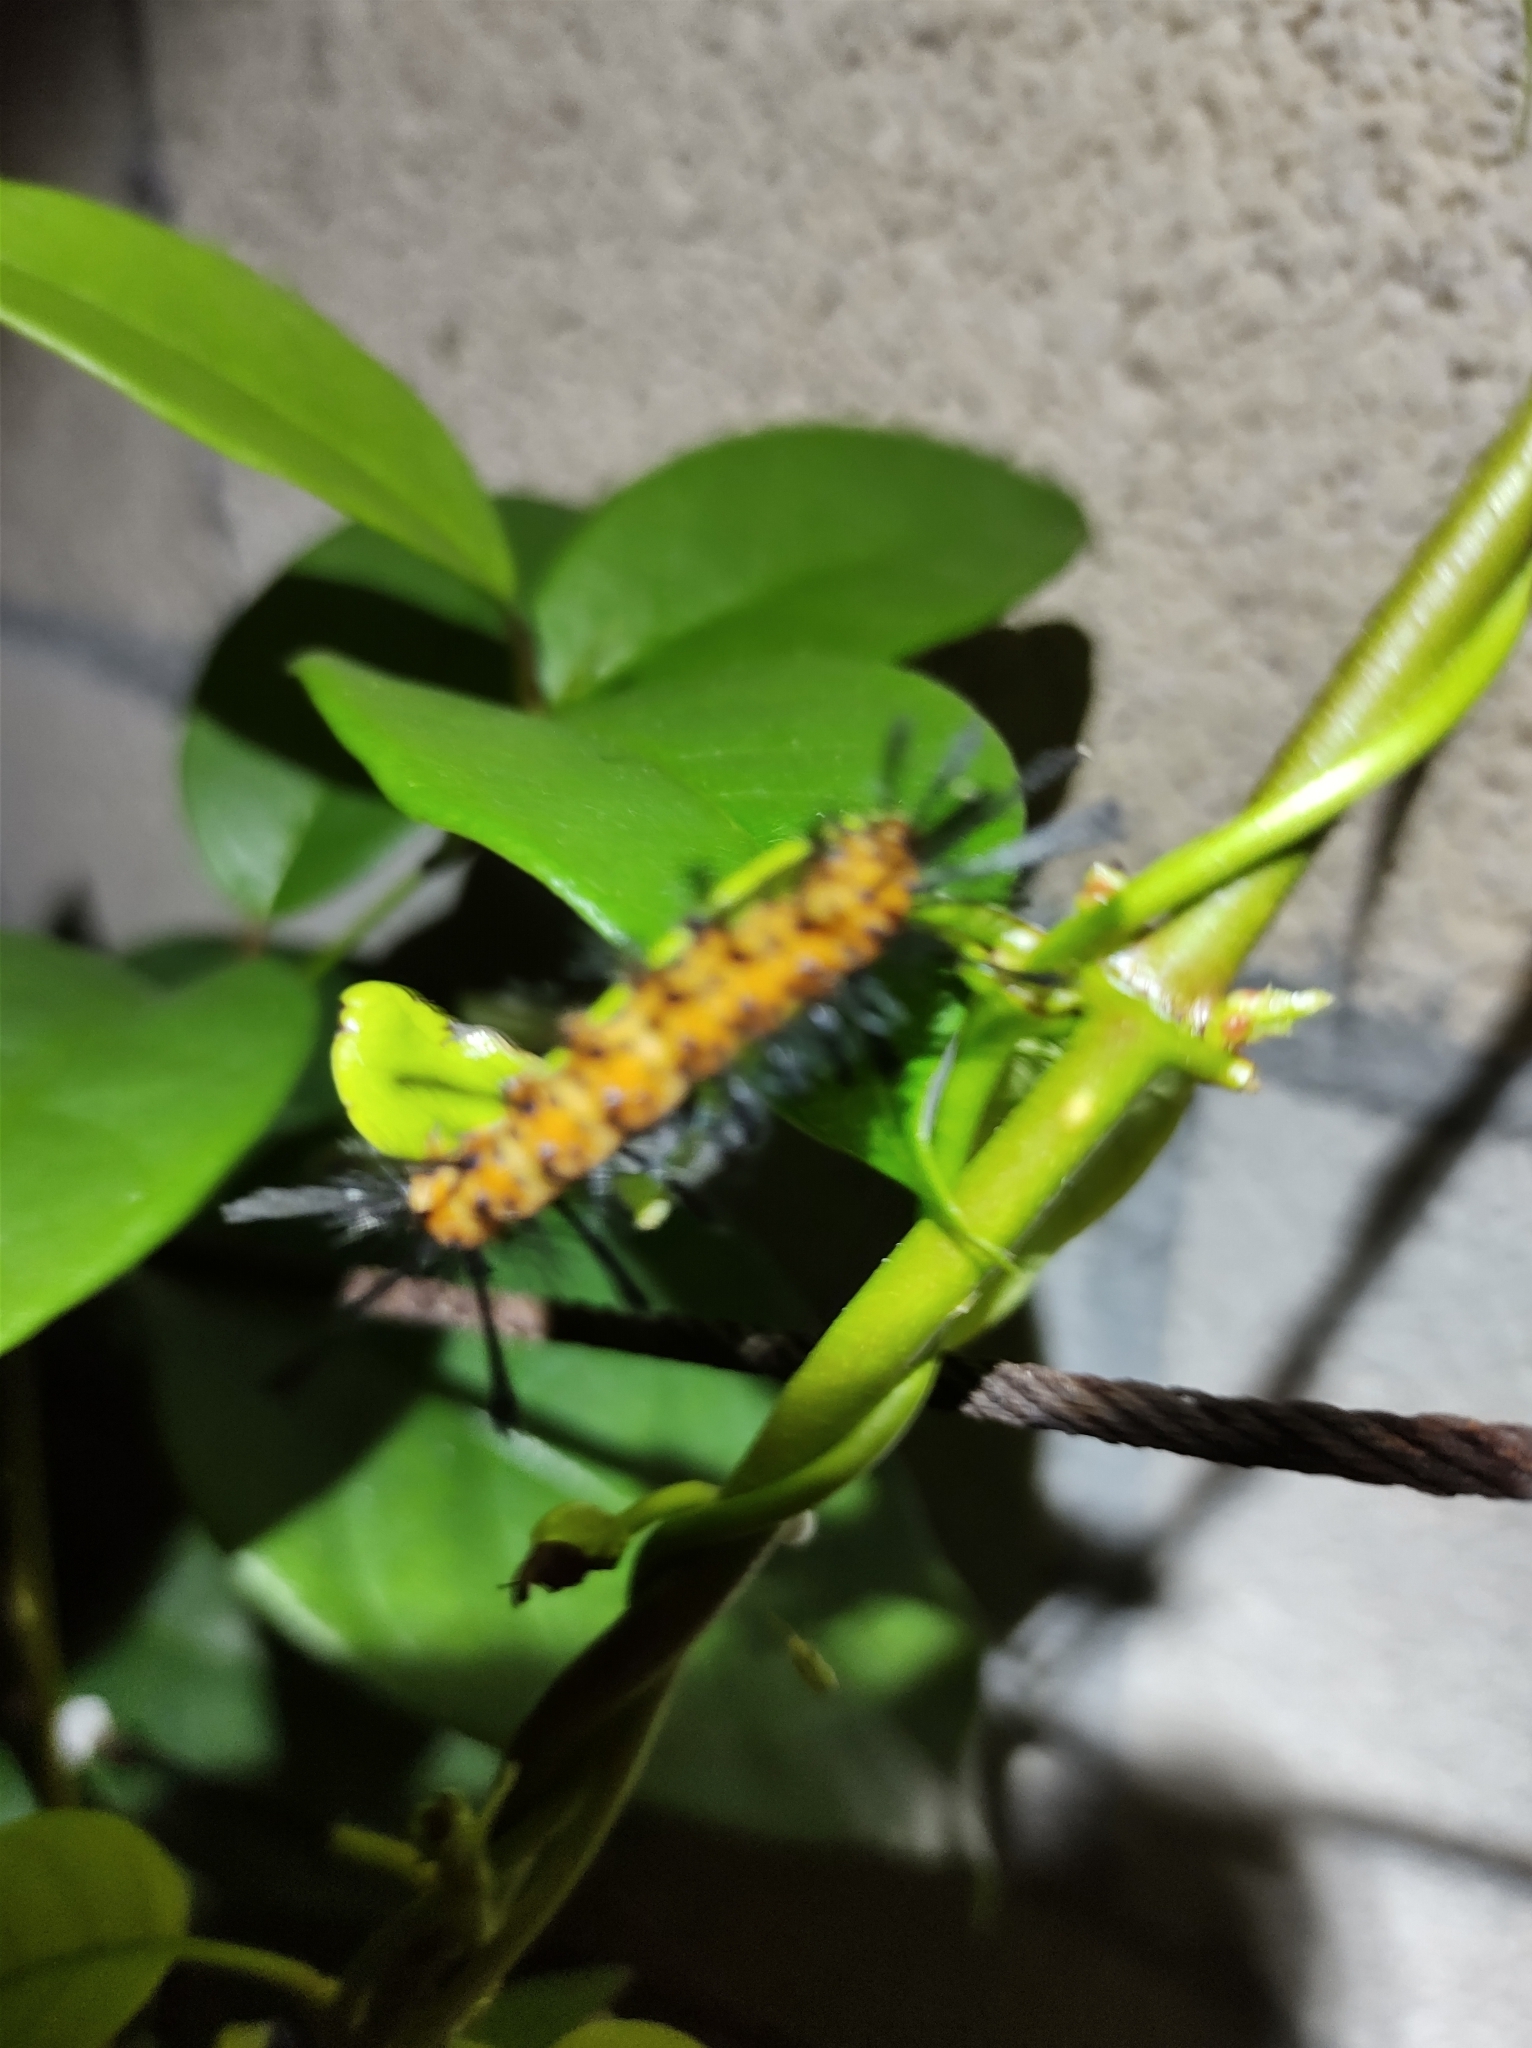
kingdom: Animalia
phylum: Arthropoda
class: Insecta
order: Lepidoptera
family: Erebidae
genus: Syntomeida
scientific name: Syntomeida epilais
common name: Polka-dot wasp moth
